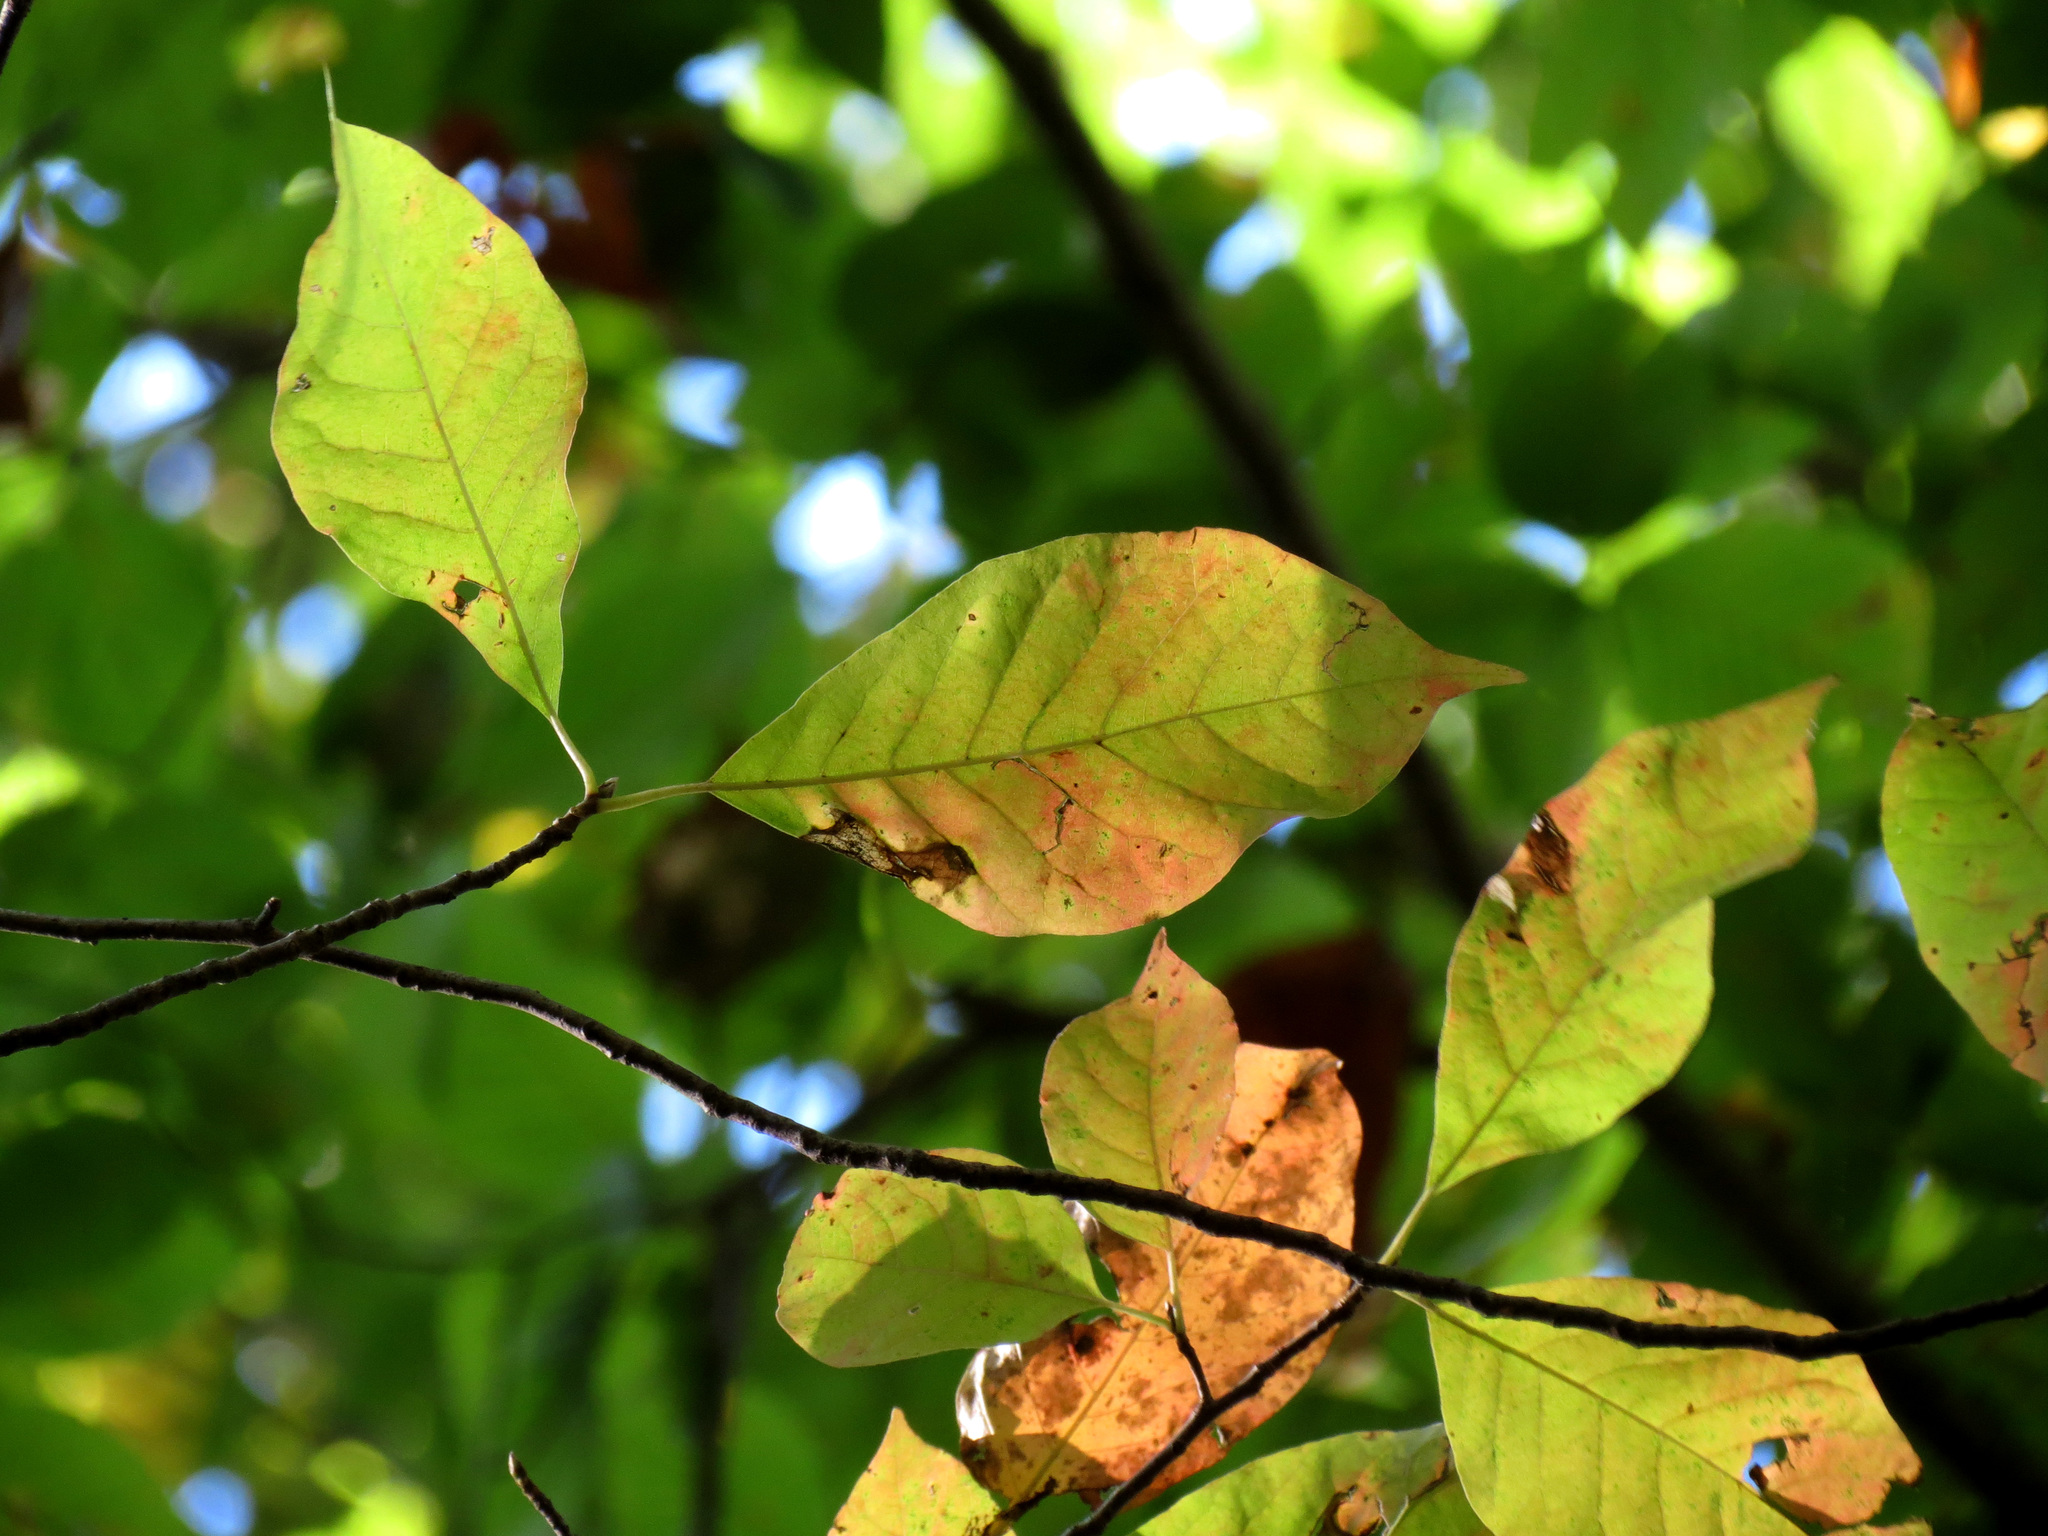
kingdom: Plantae
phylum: Tracheophyta
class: Magnoliopsida
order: Cornales
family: Nyssaceae
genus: Nyssa
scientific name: Nyssa sylvatica
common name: Black tupelo
